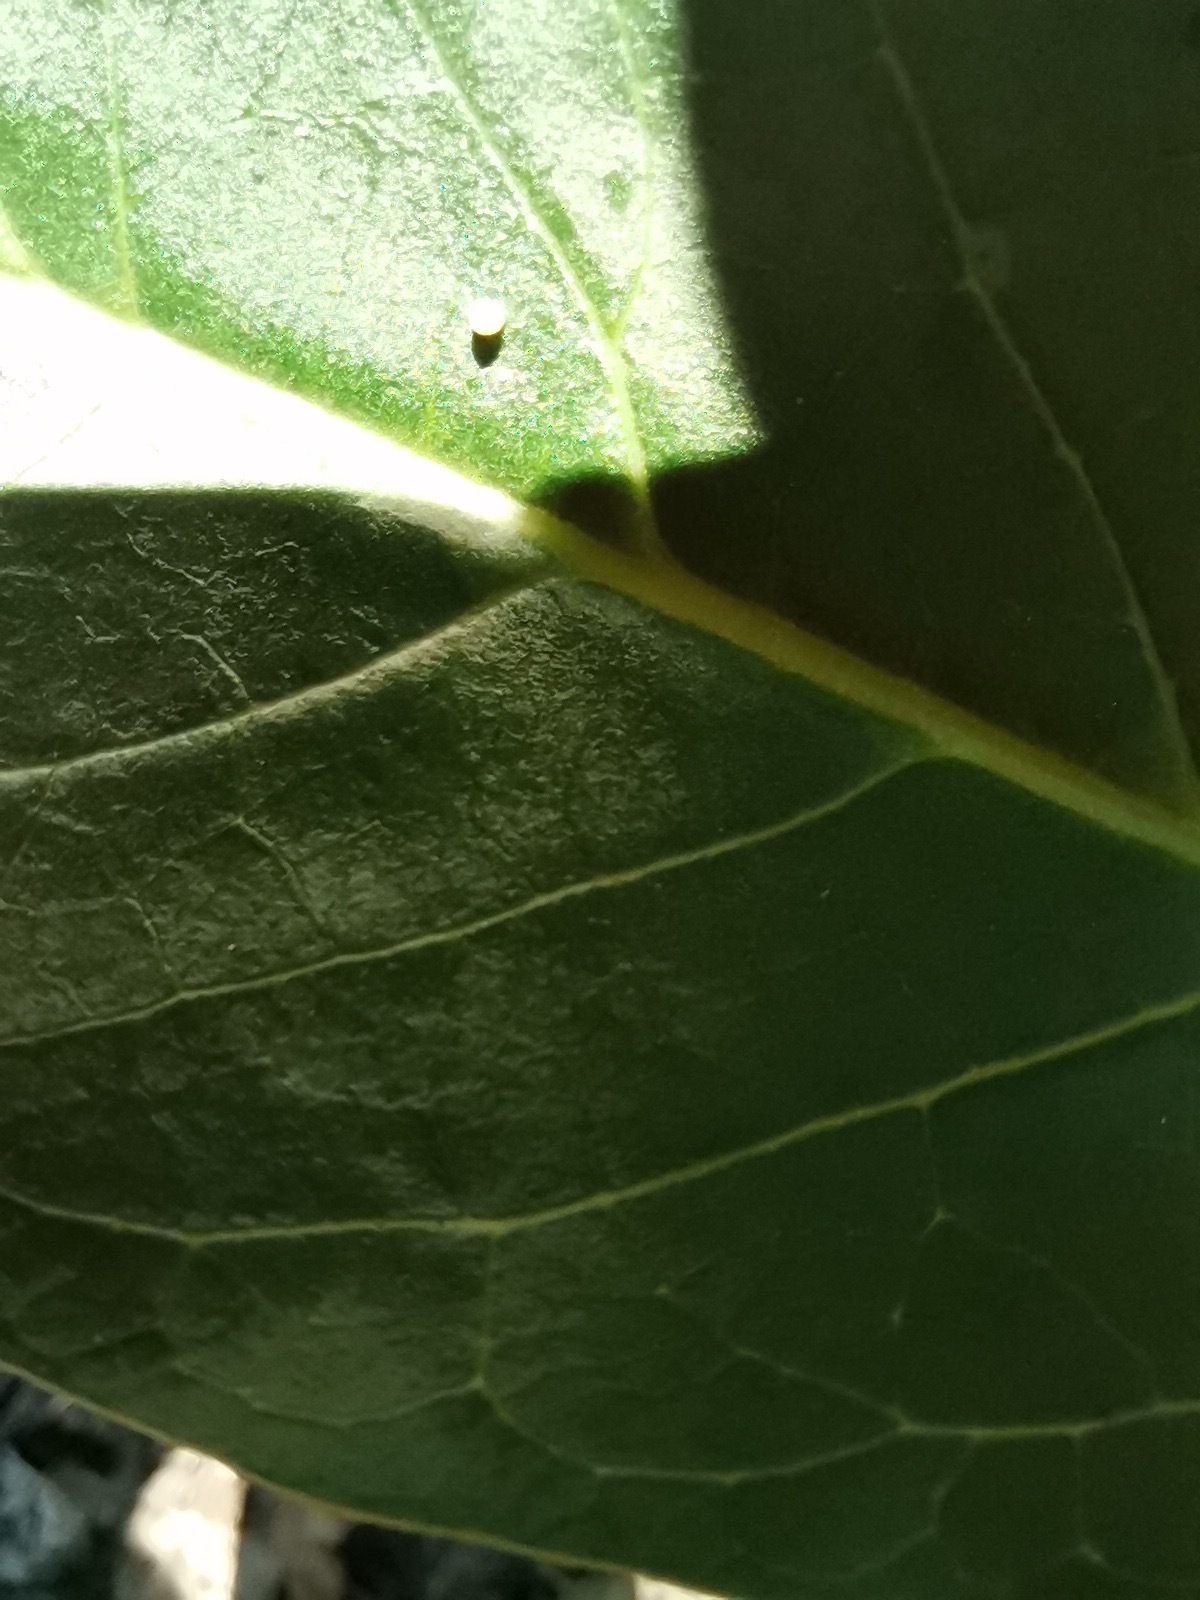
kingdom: Animalia
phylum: Arthropoda
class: Insecta
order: Lepidoptera
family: Nymphalidae
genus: Danaus
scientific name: Danaus plexippus
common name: Monarch
